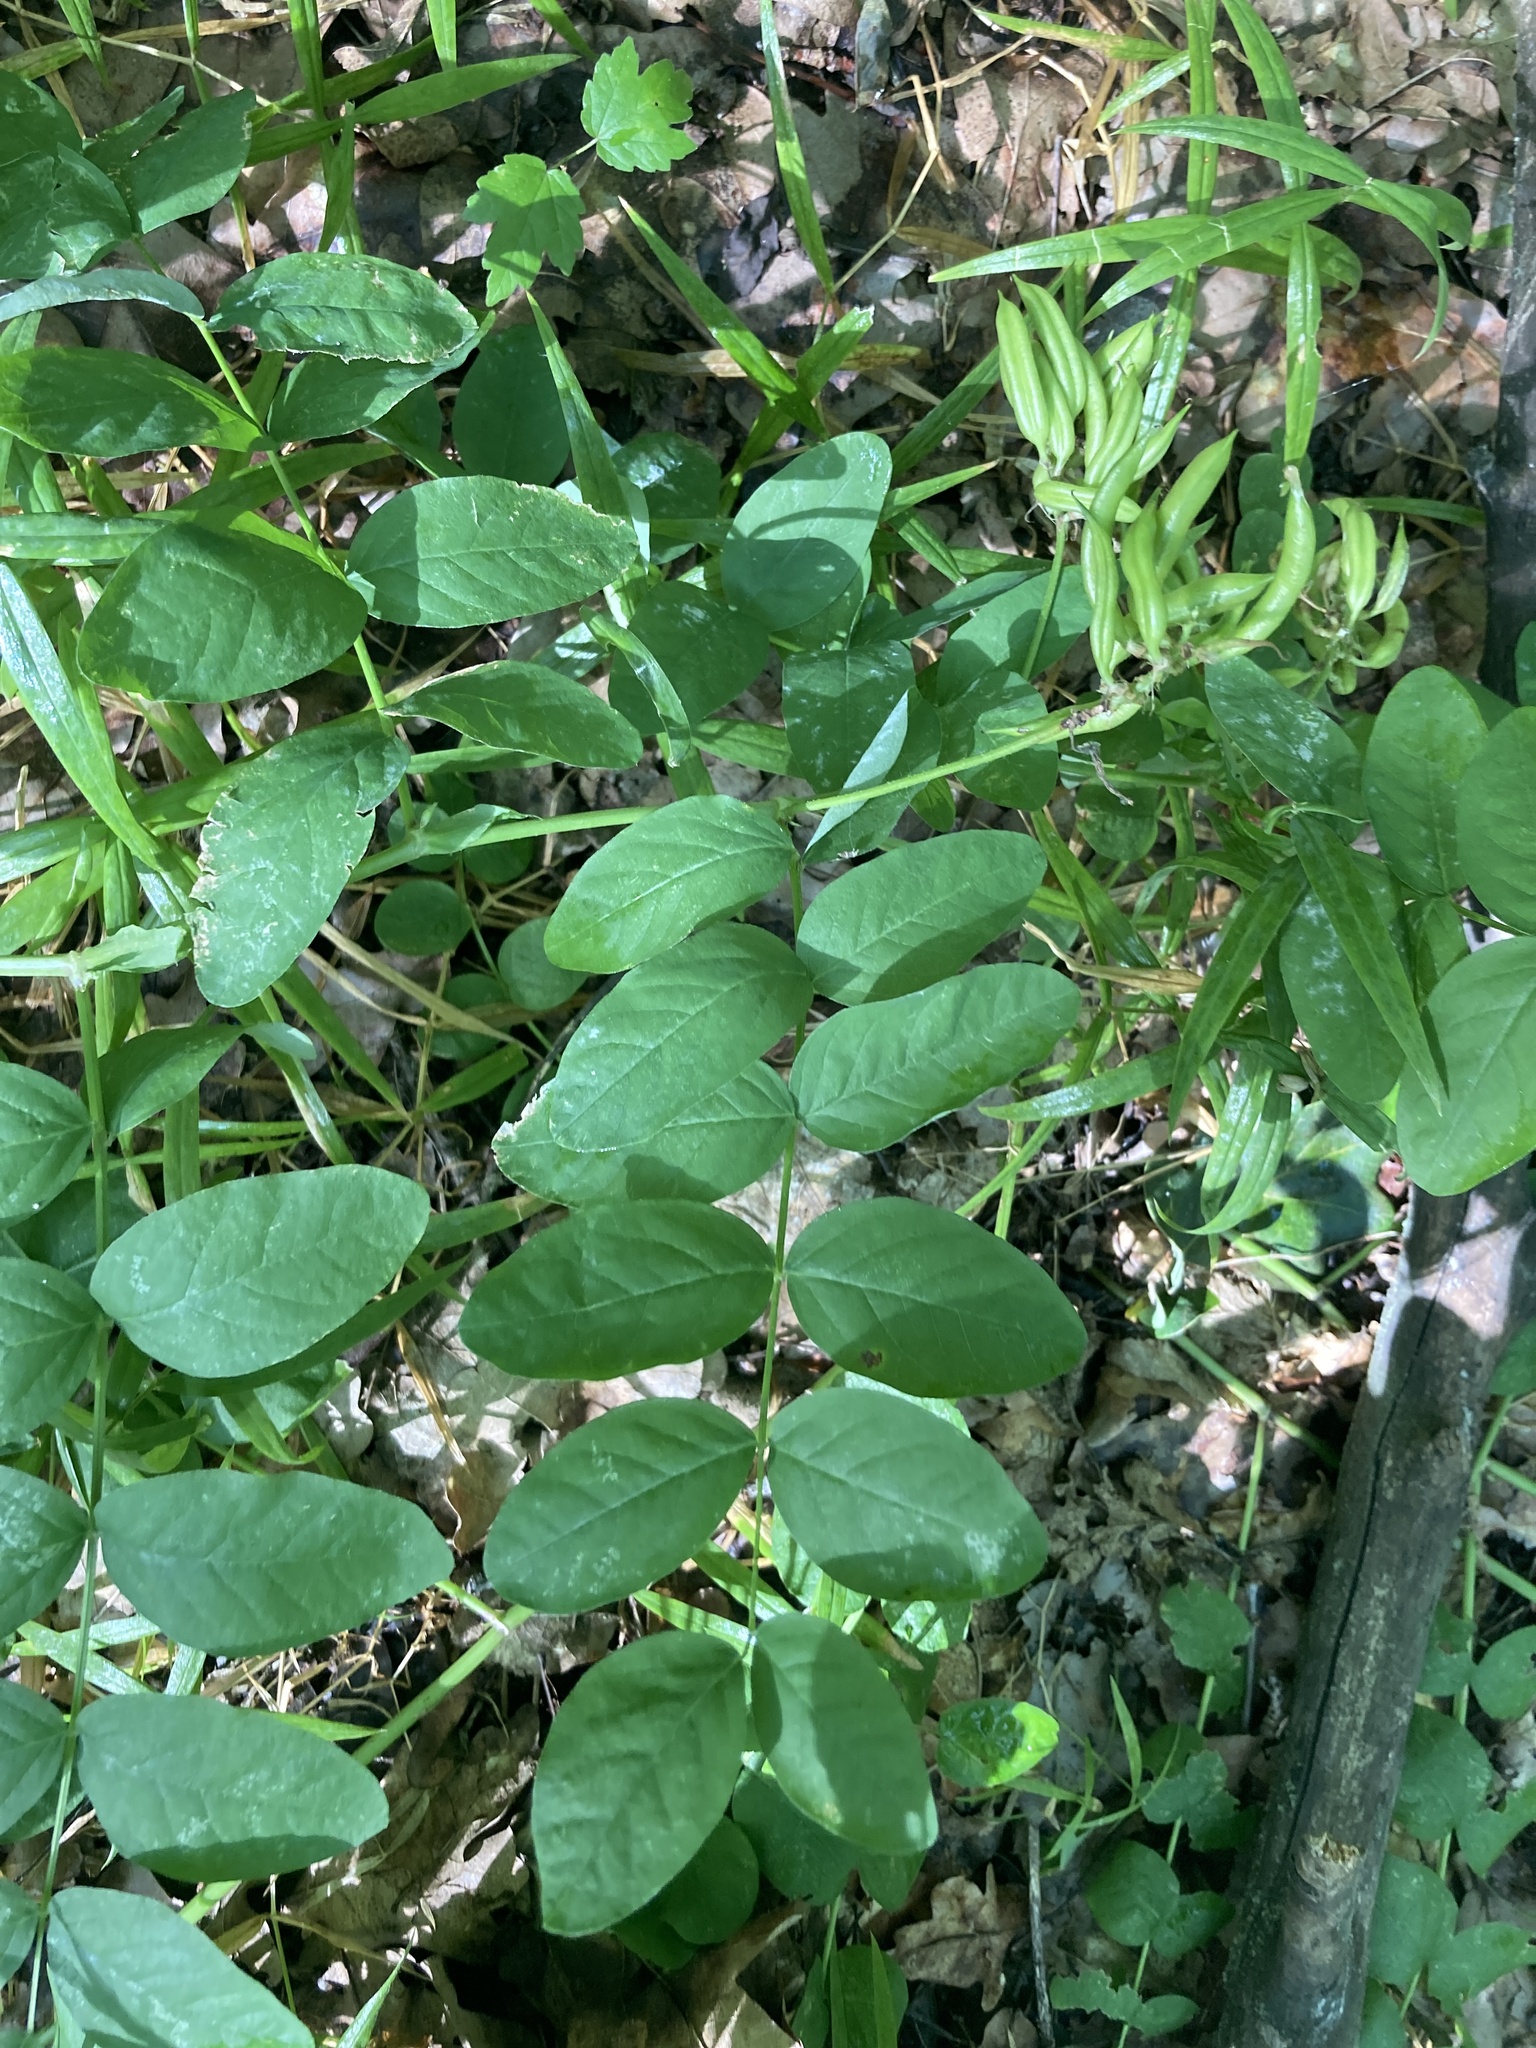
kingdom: Plantae
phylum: Tracheophyta
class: Magnoliopsida
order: Fabales
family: Fabaceae
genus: Astragalus
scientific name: Astragalus glycyphyllos
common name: Wild liquorice
